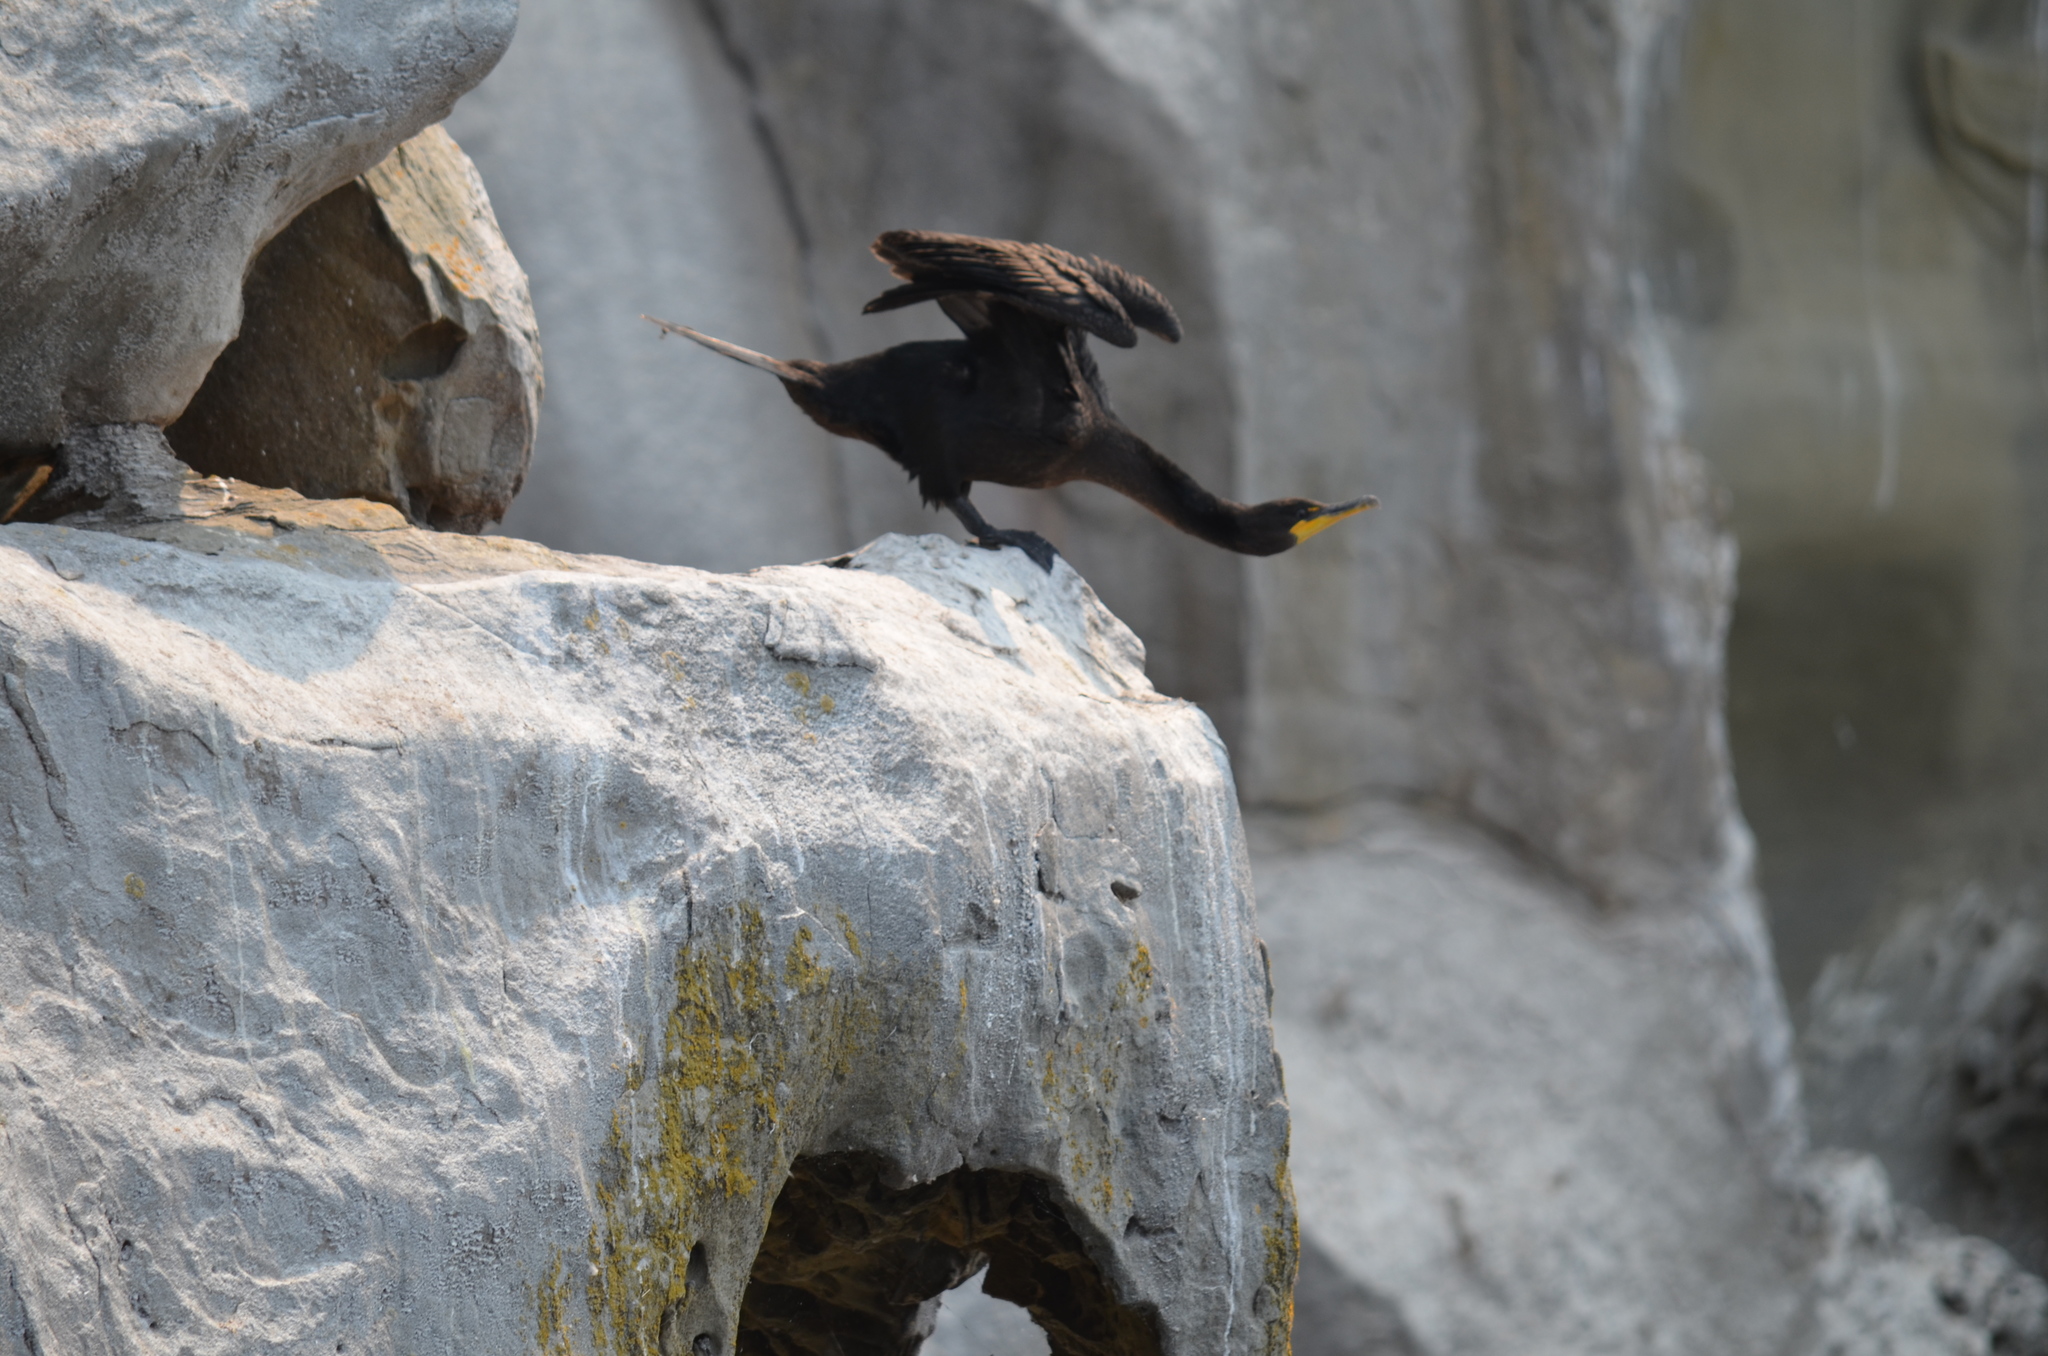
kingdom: Animalia
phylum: Chordata
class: Aves
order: Suliformes
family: Phalacrocoracidae
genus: Phalacrocorax
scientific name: Phalacrocorax auritus
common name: Double-crested cormorant
